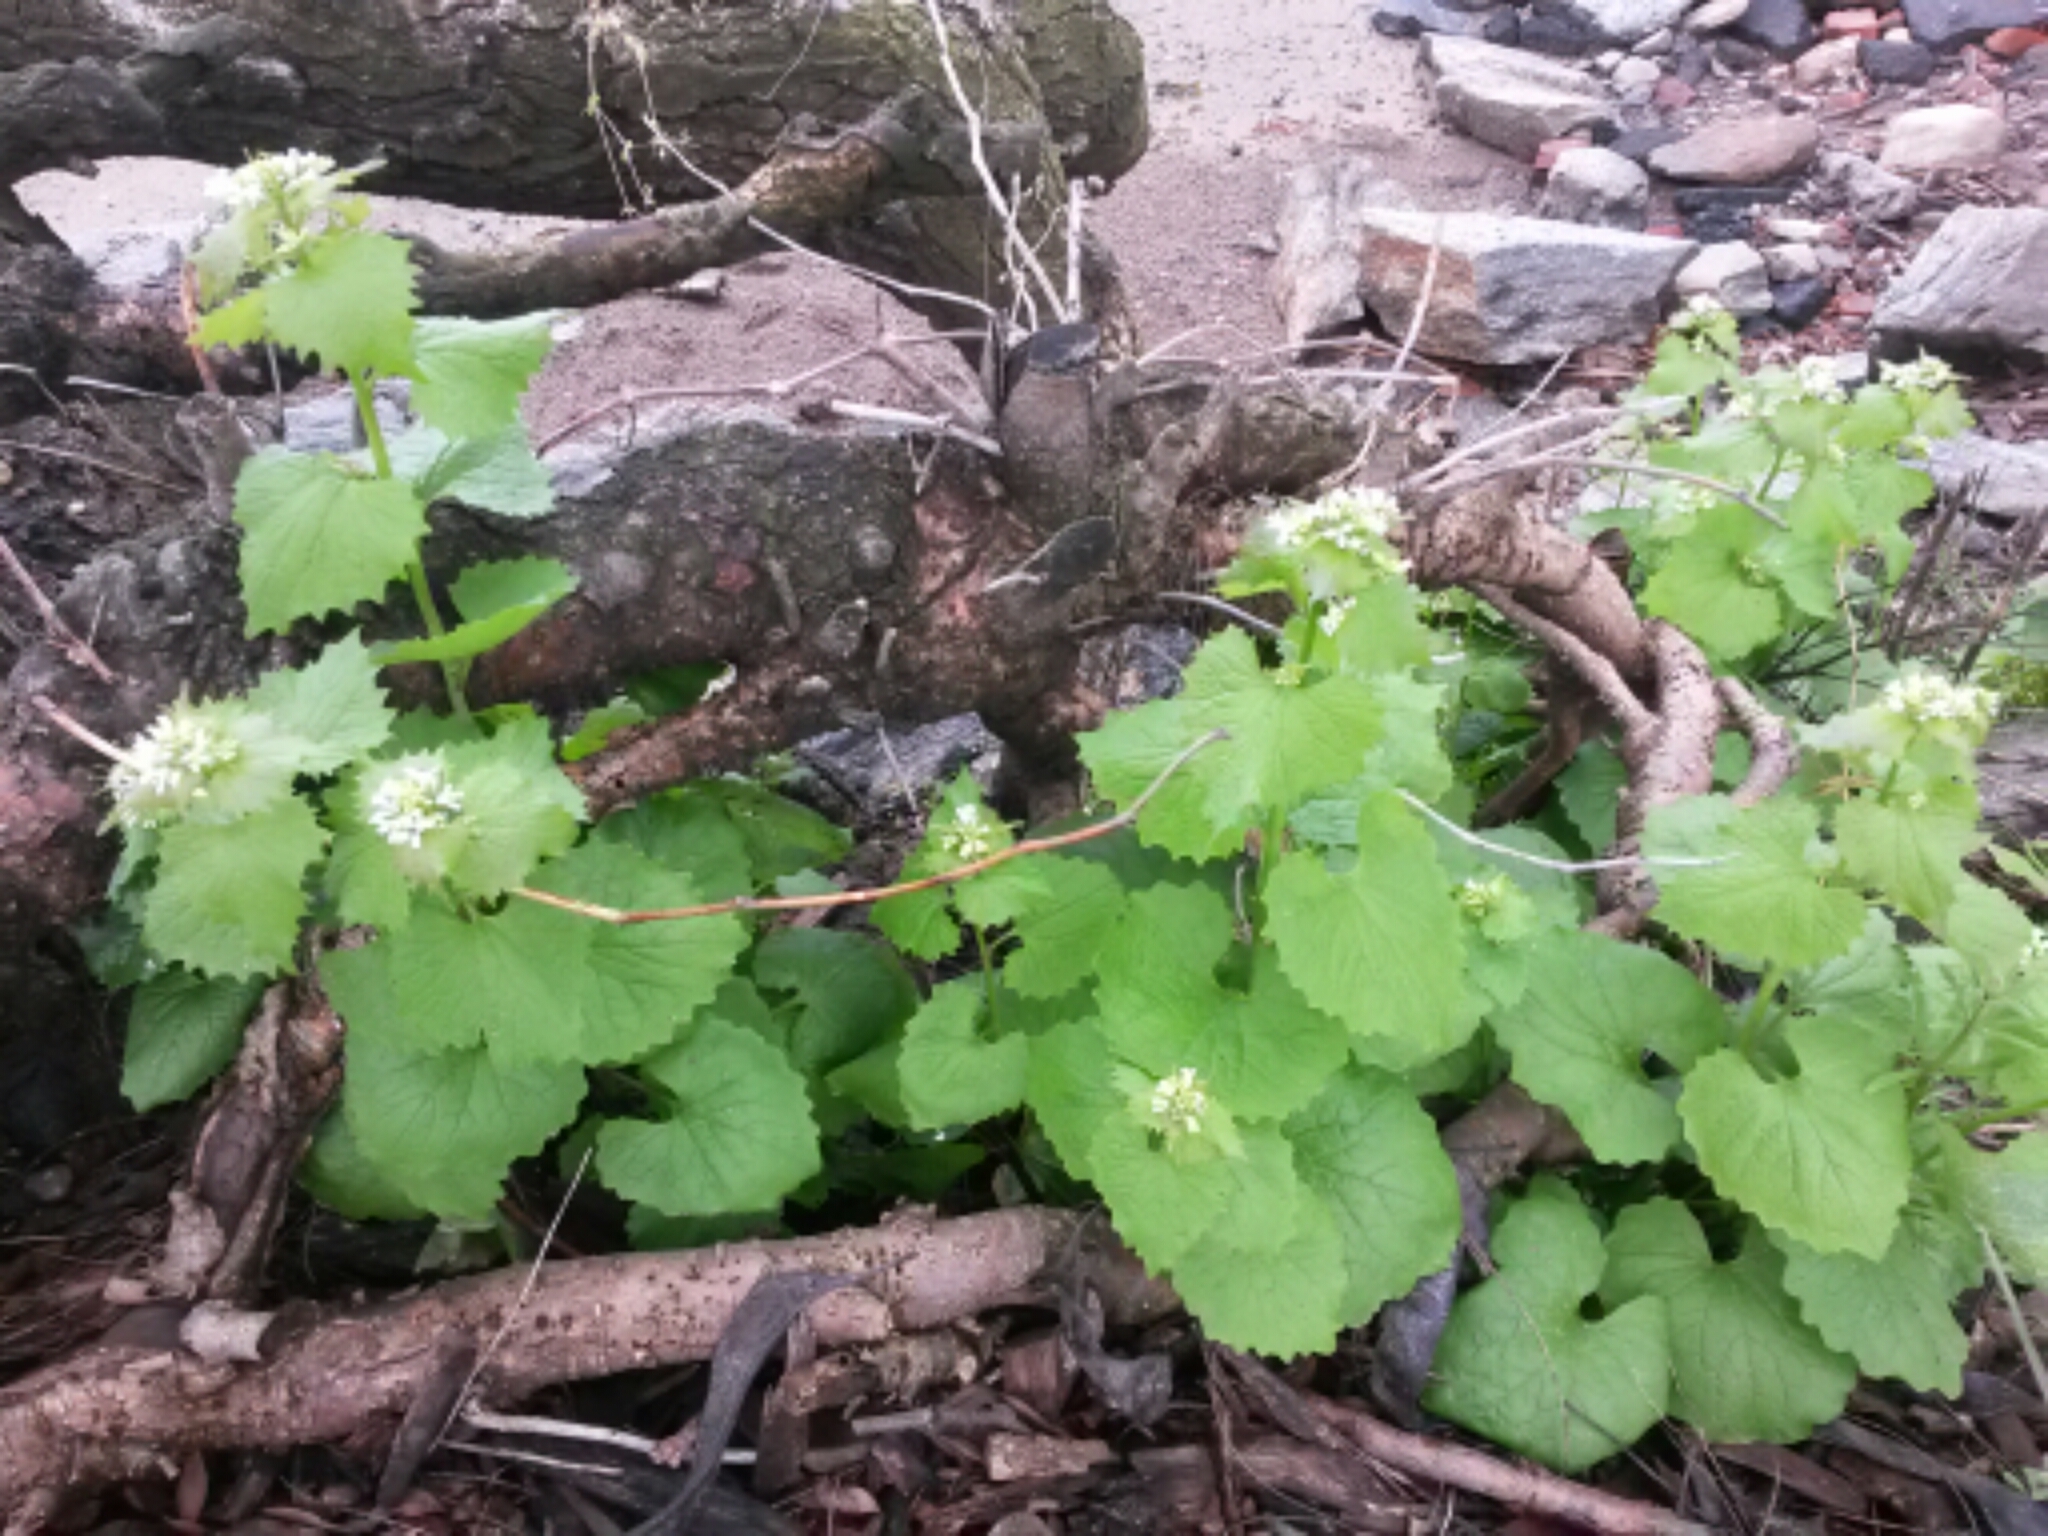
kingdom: Plantae
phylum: Tracheophyta
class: Magnoliopsida
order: Brassicales
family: Brassicaceae
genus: Alliaria
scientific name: Alliaria petiolata
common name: Garlic mustard
